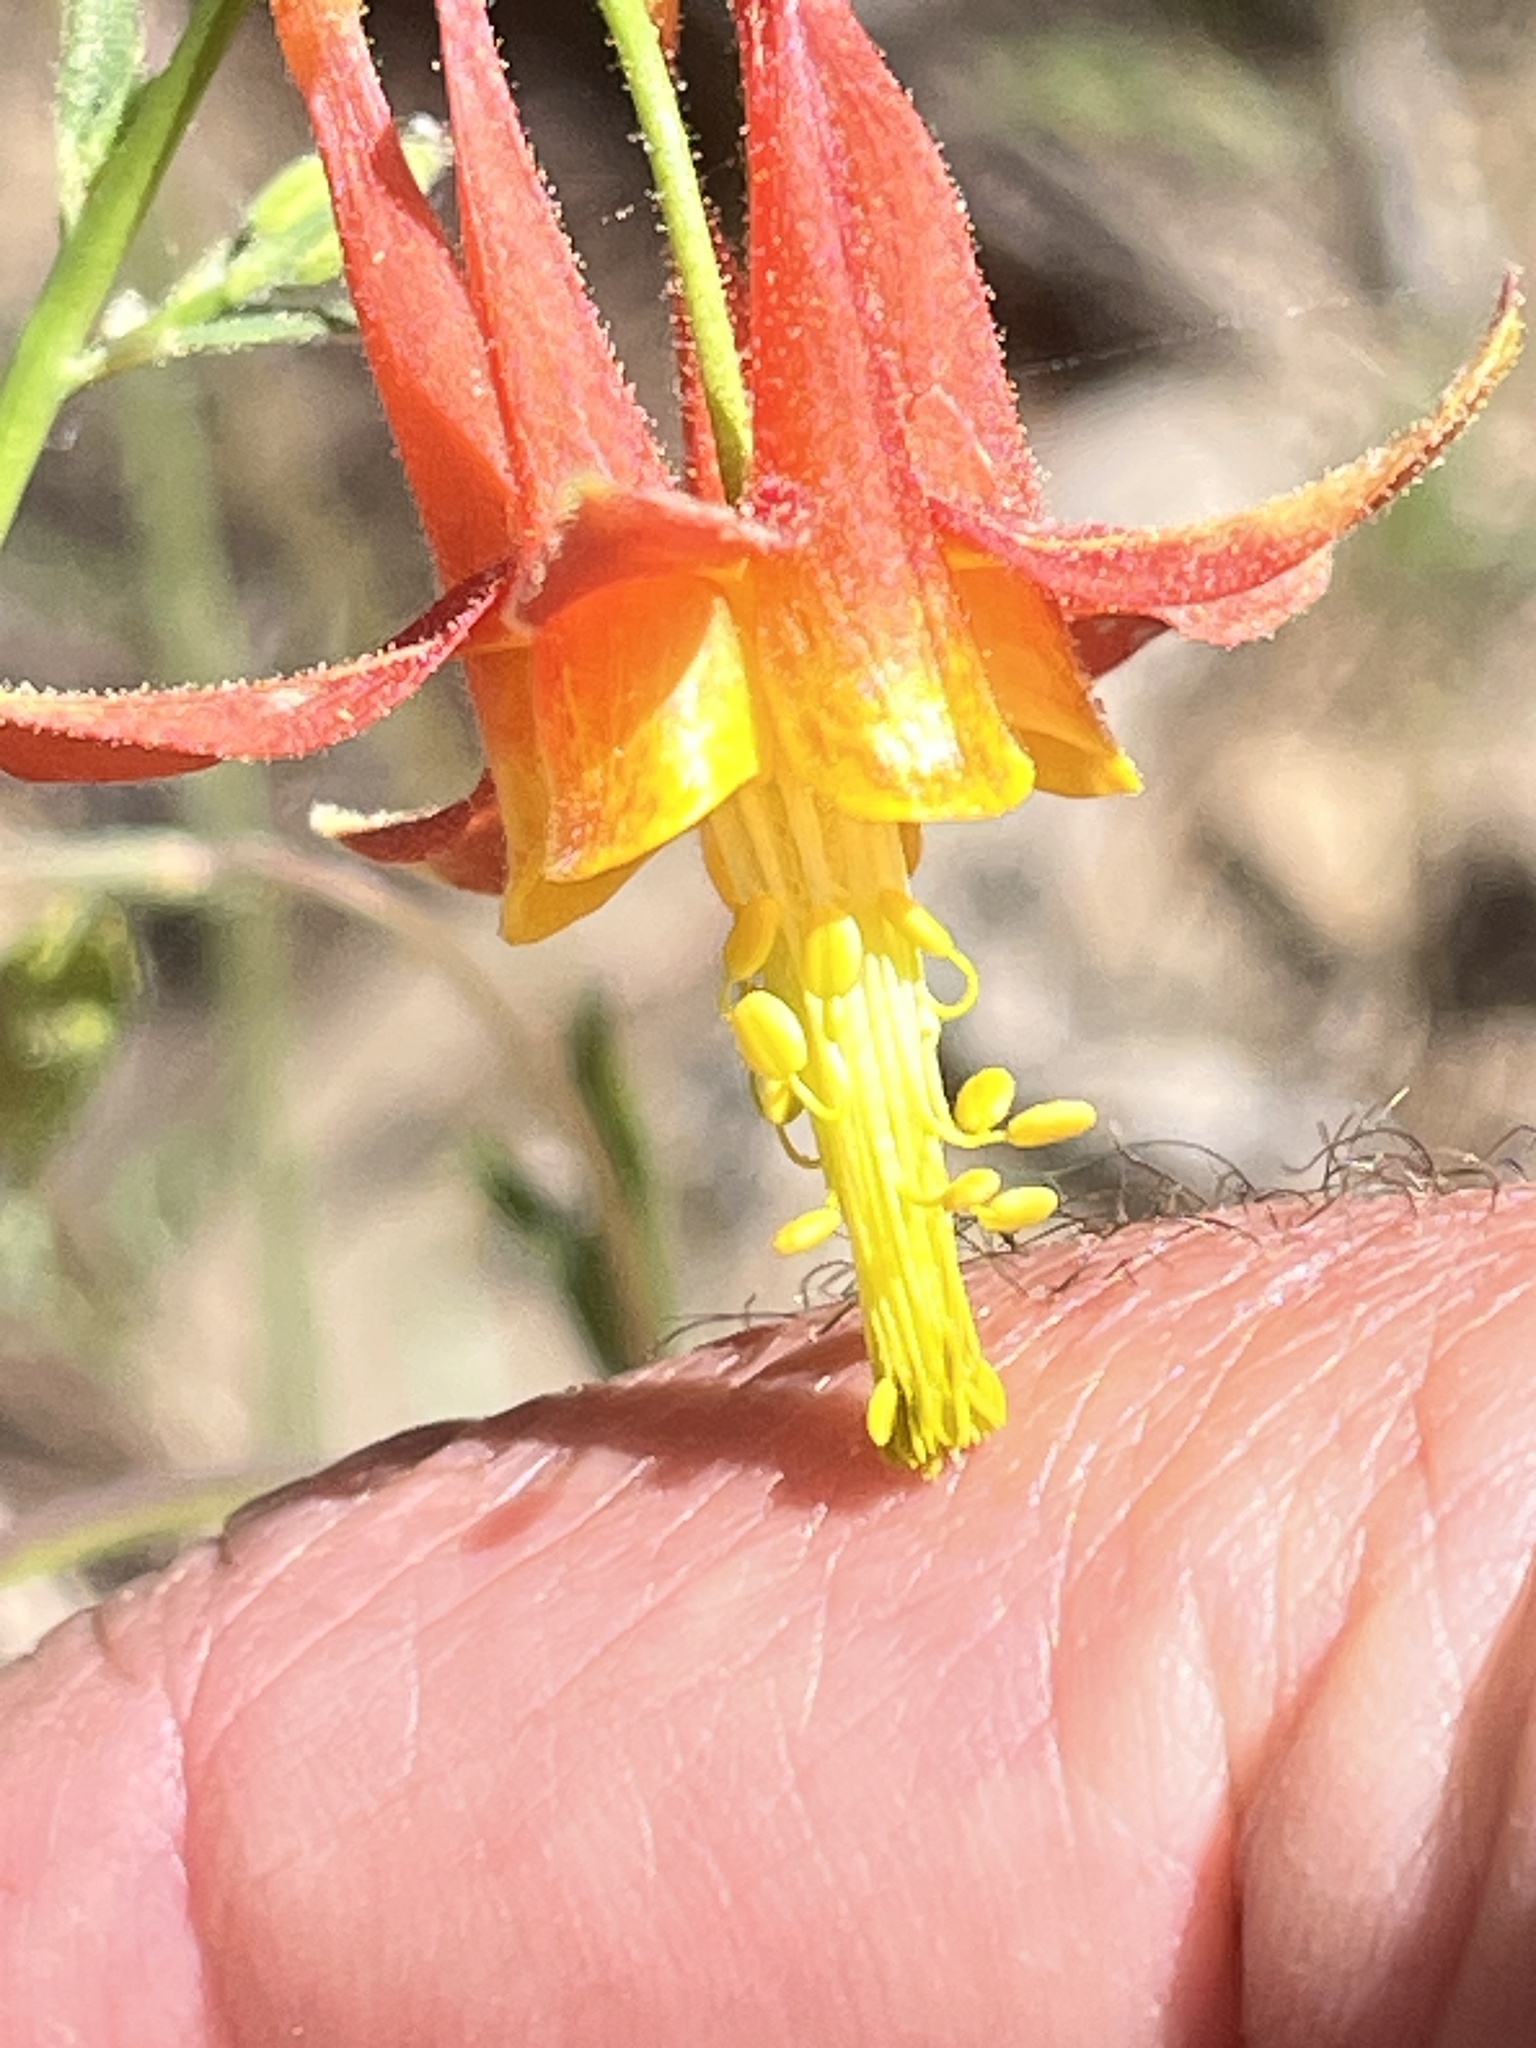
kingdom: Plantae
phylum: Tracheophyta
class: Magnoliopsida
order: Ranunculales
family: Ranunculaceae
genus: Aquilegia
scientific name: Aquilegia formosa
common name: Sitka columbine
